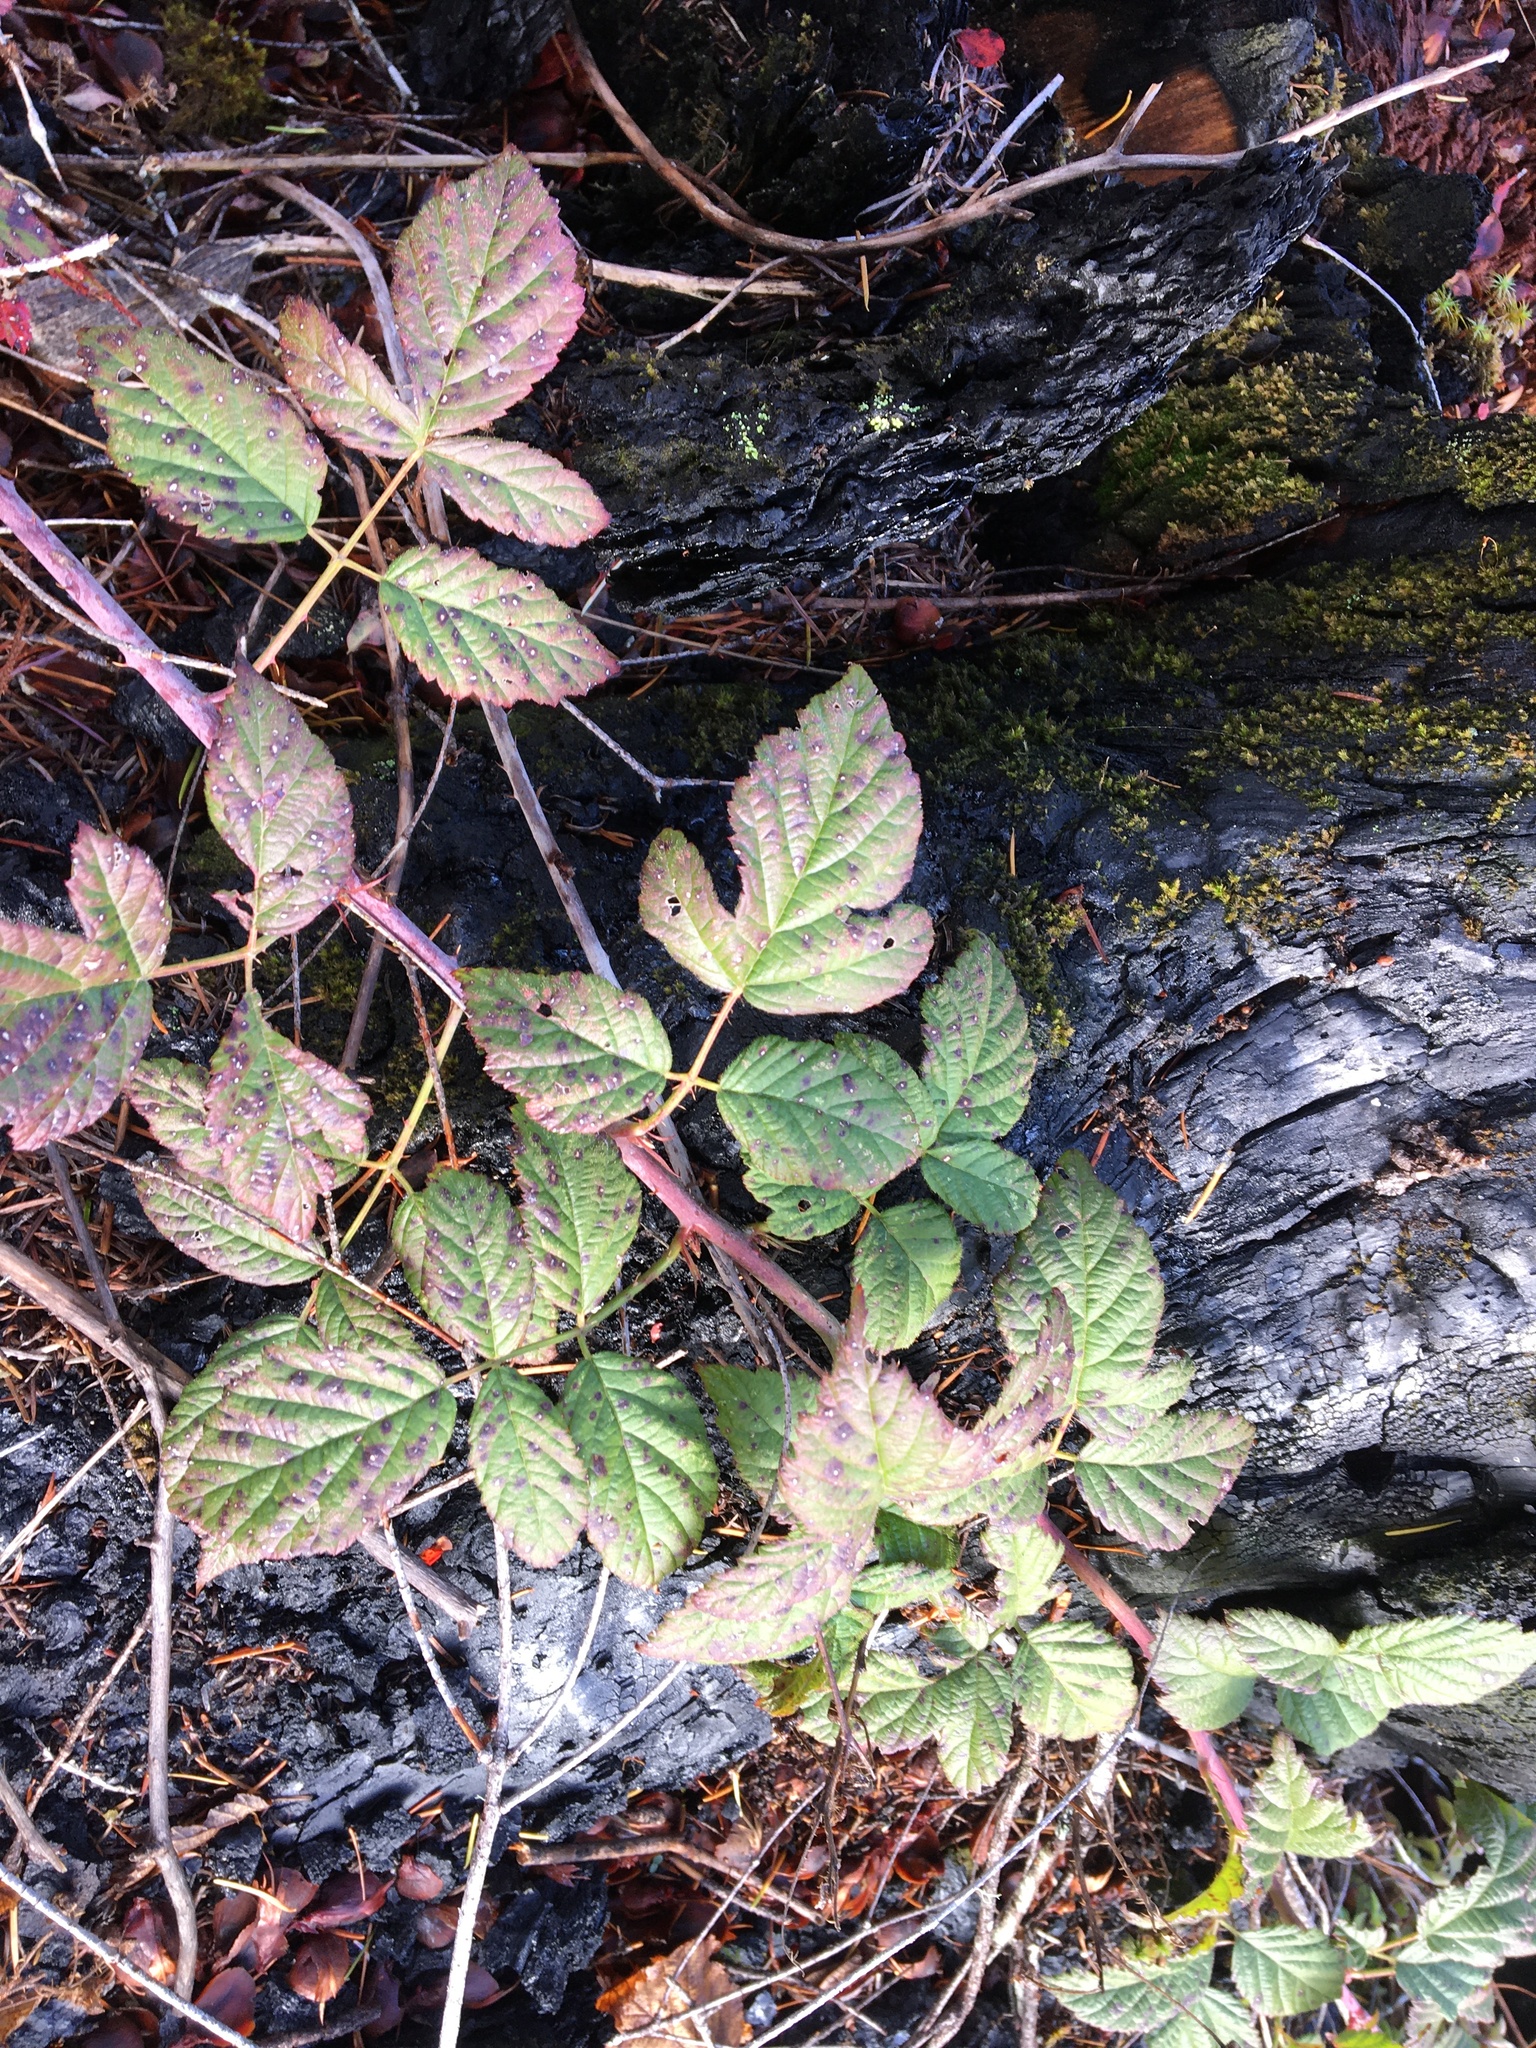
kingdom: Plantae
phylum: Tracheophyta
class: Magnoliopsida
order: Rosales
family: Rosaceae
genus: Rubus
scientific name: Rubus ursinus
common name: Pacific blackberry
